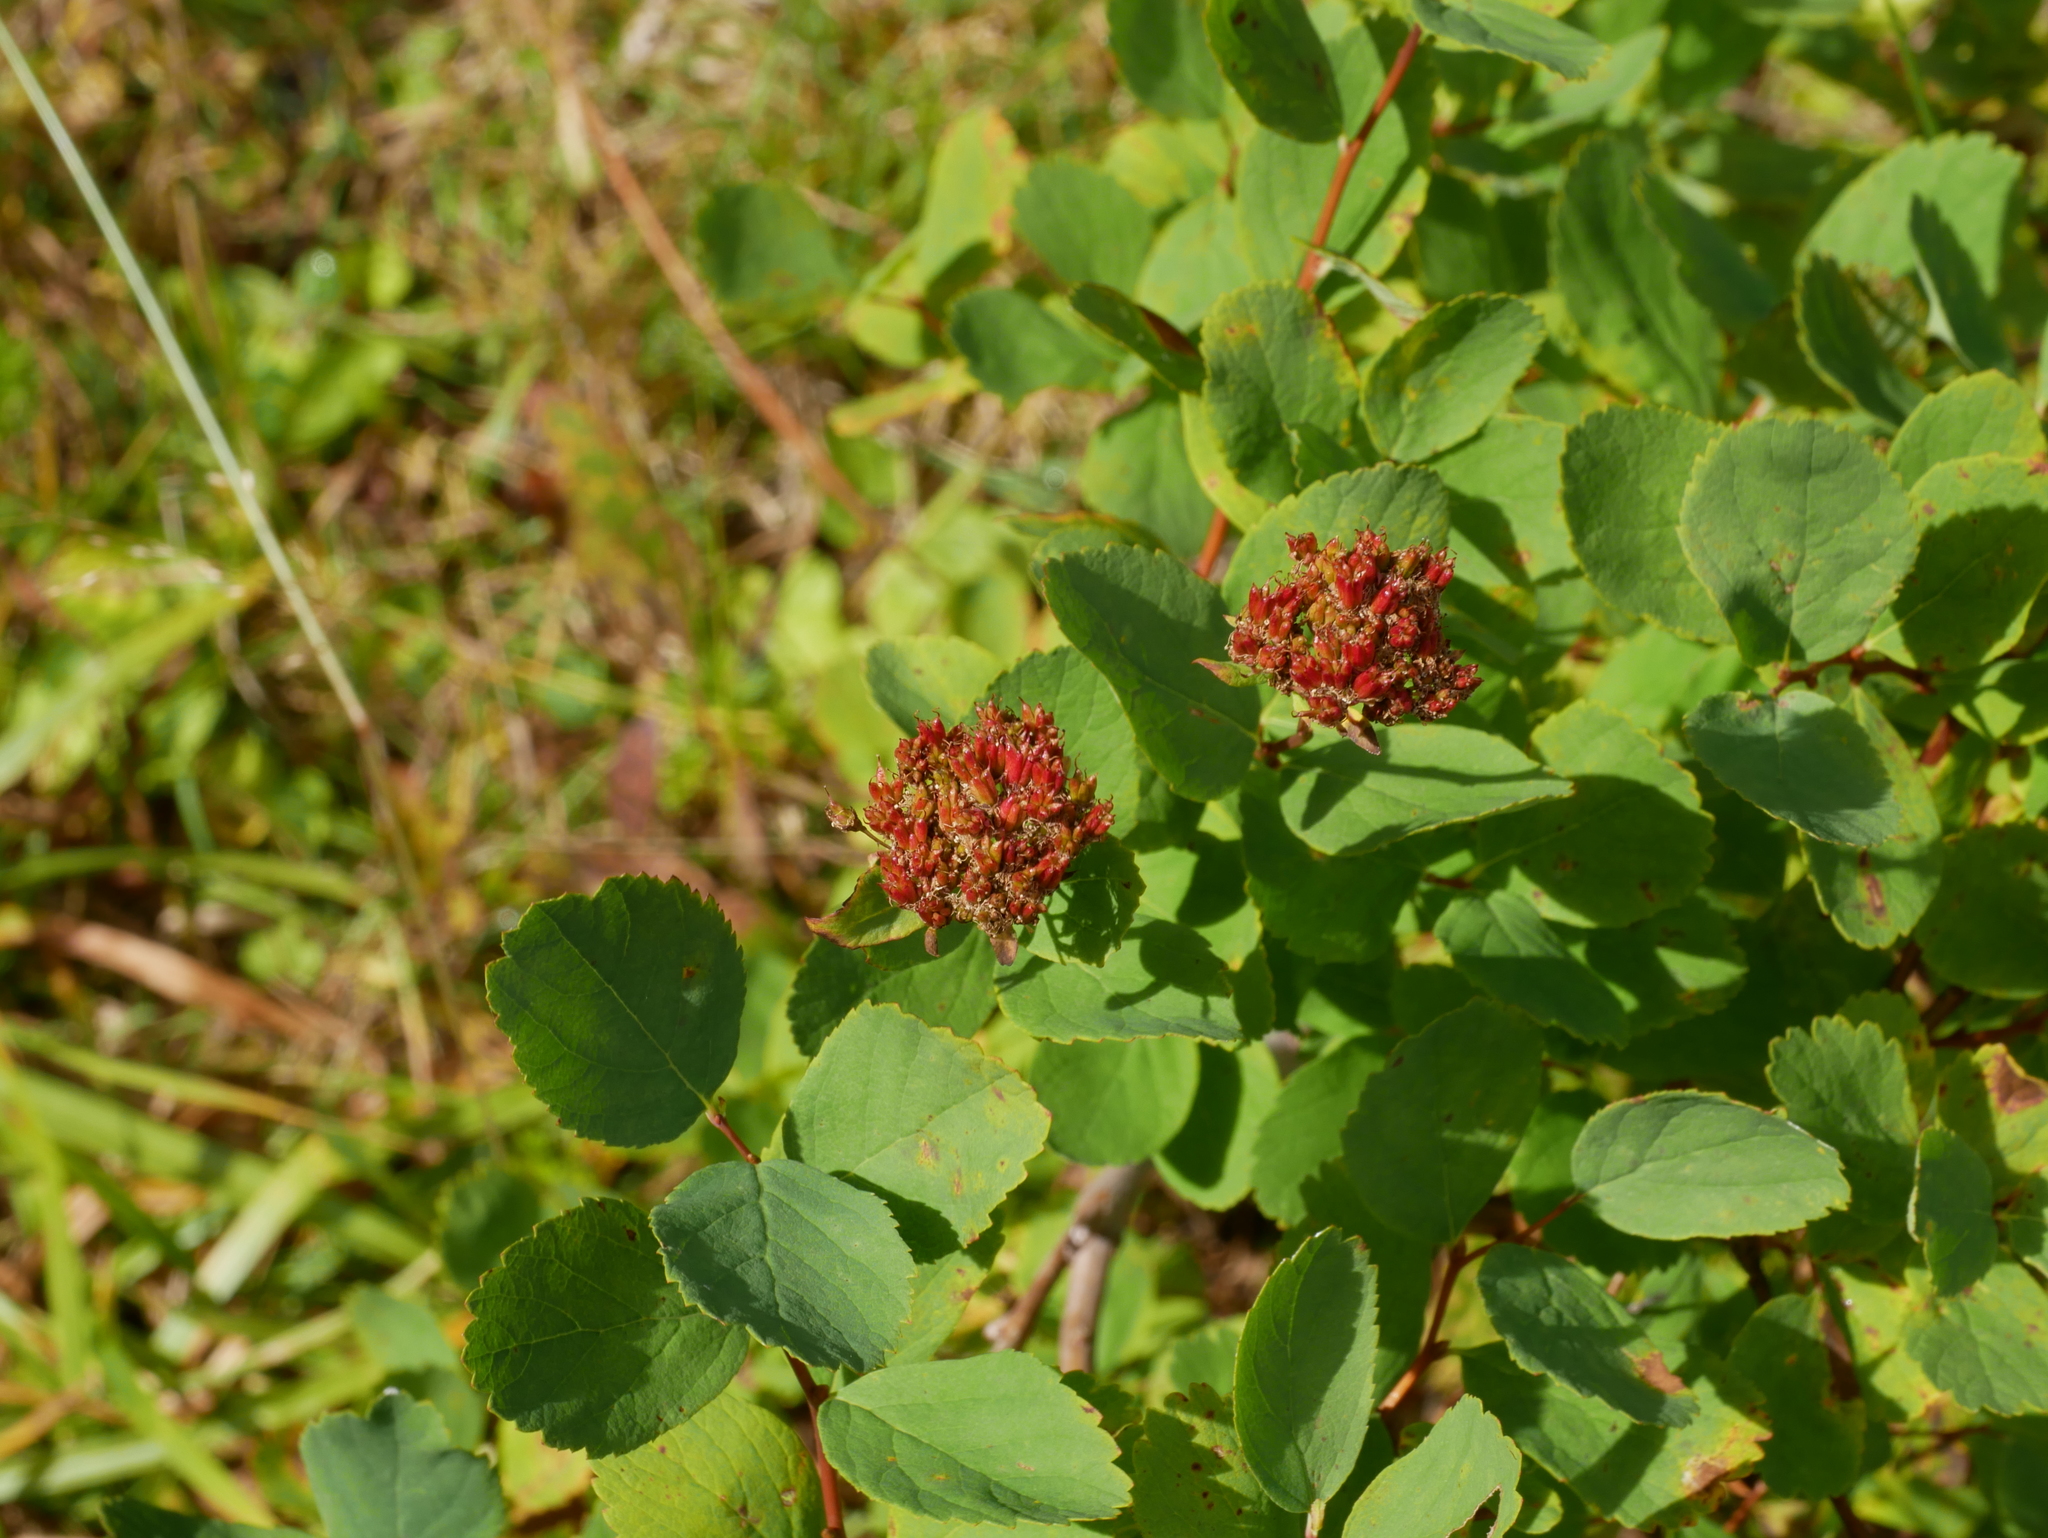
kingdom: Plantae
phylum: Tracheophyta
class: Magnoliopsida
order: Rosales
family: Rosaceae
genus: Spiraea
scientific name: Spiraea splendens
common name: Subalpine meadowsweet
